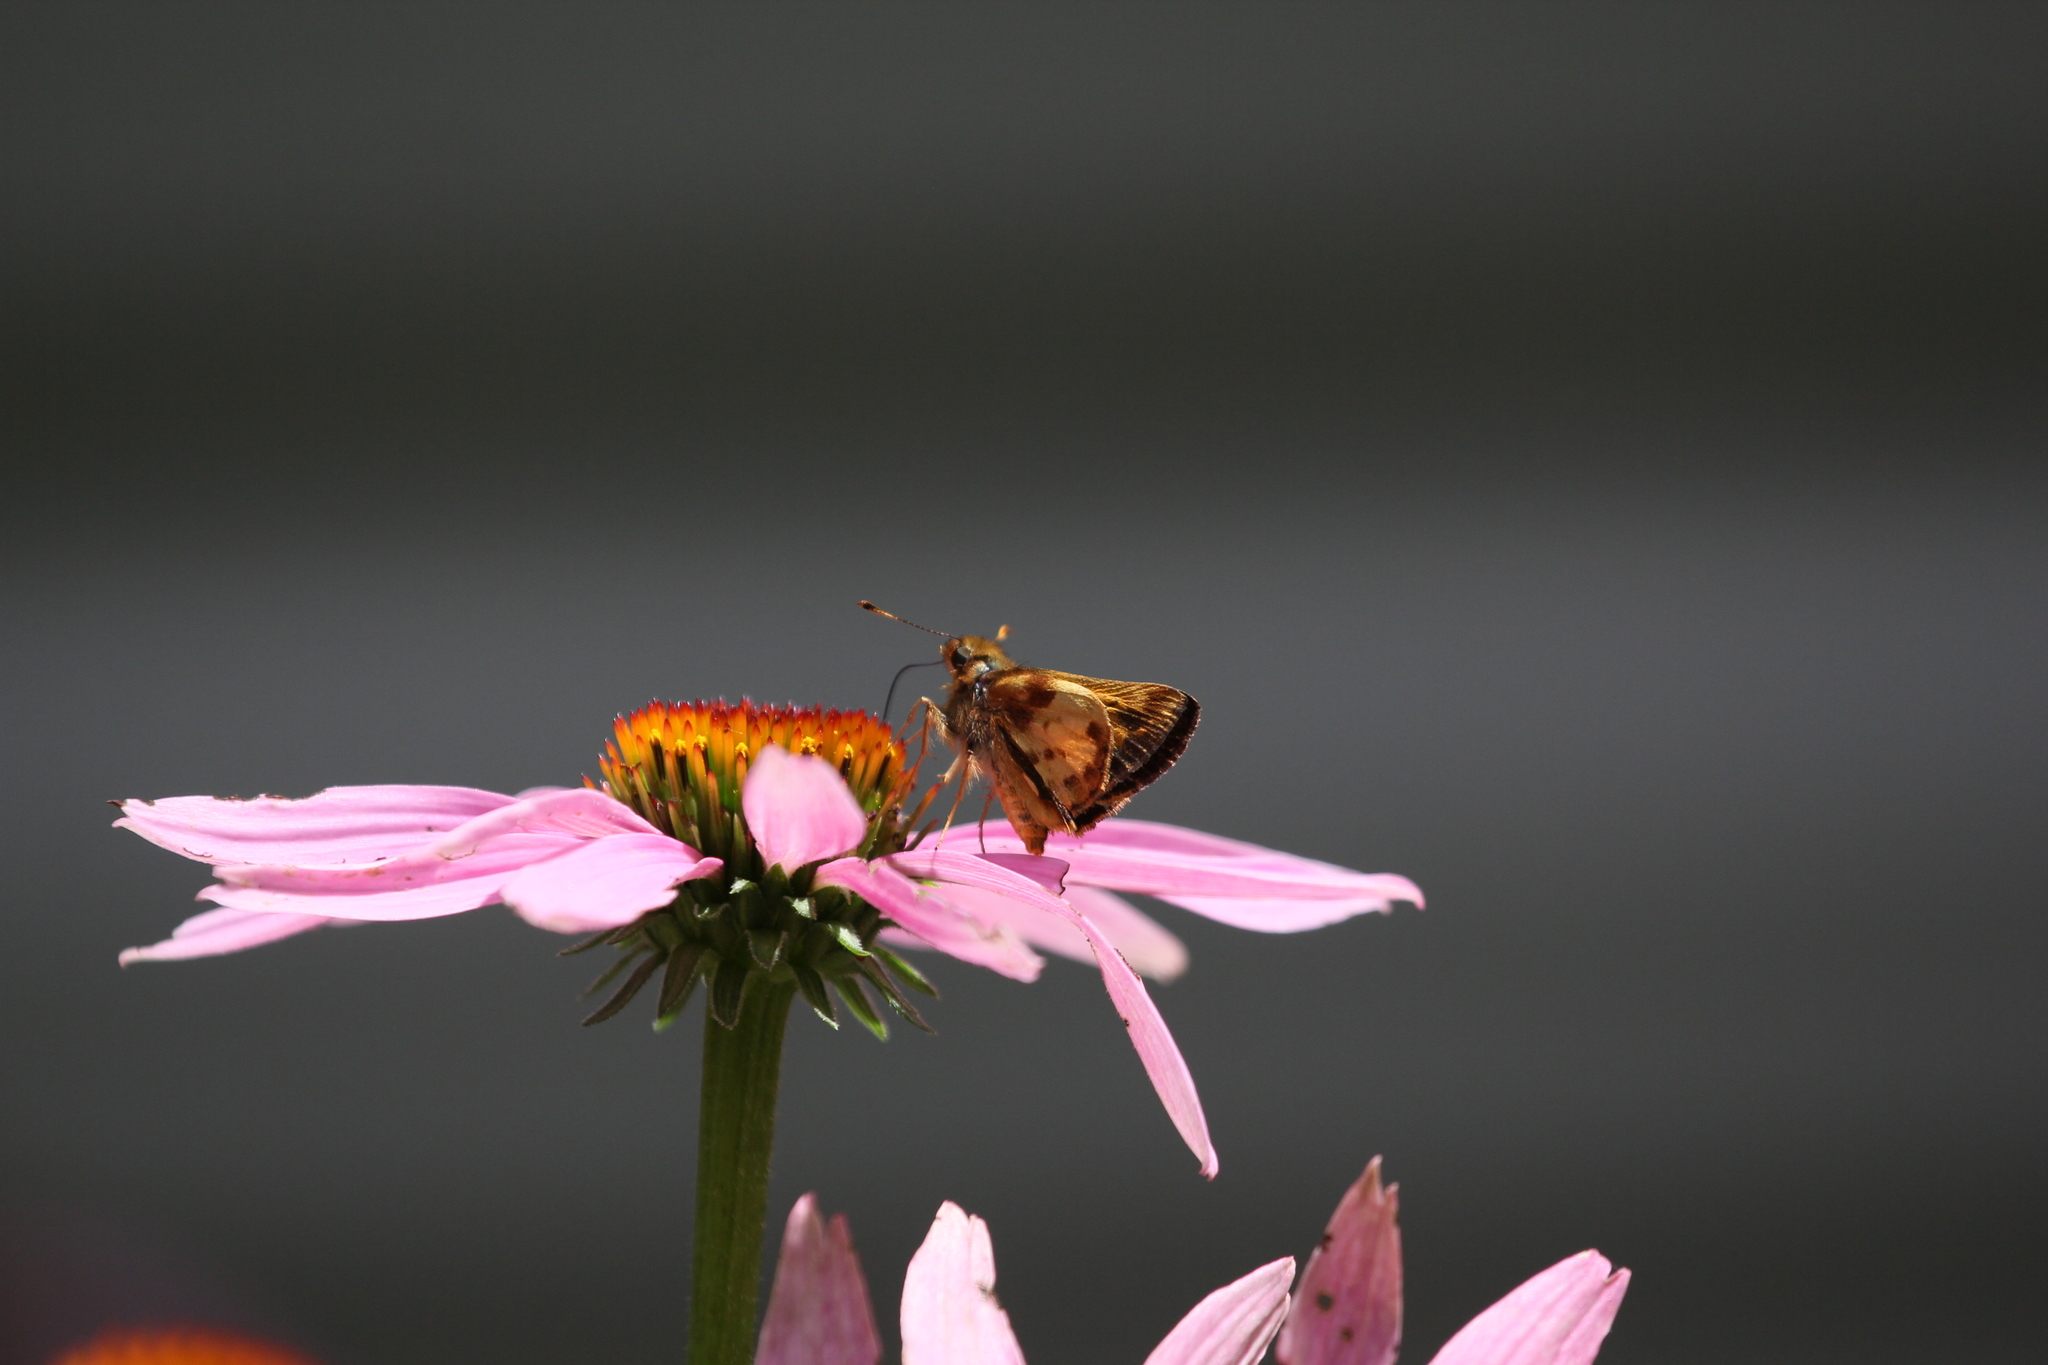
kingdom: Animalia
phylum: Arthropoda
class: Insecta
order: Lepidoptera
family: Hesperiidae
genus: Lon
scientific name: Lon zabulon
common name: Zabulon skipper
